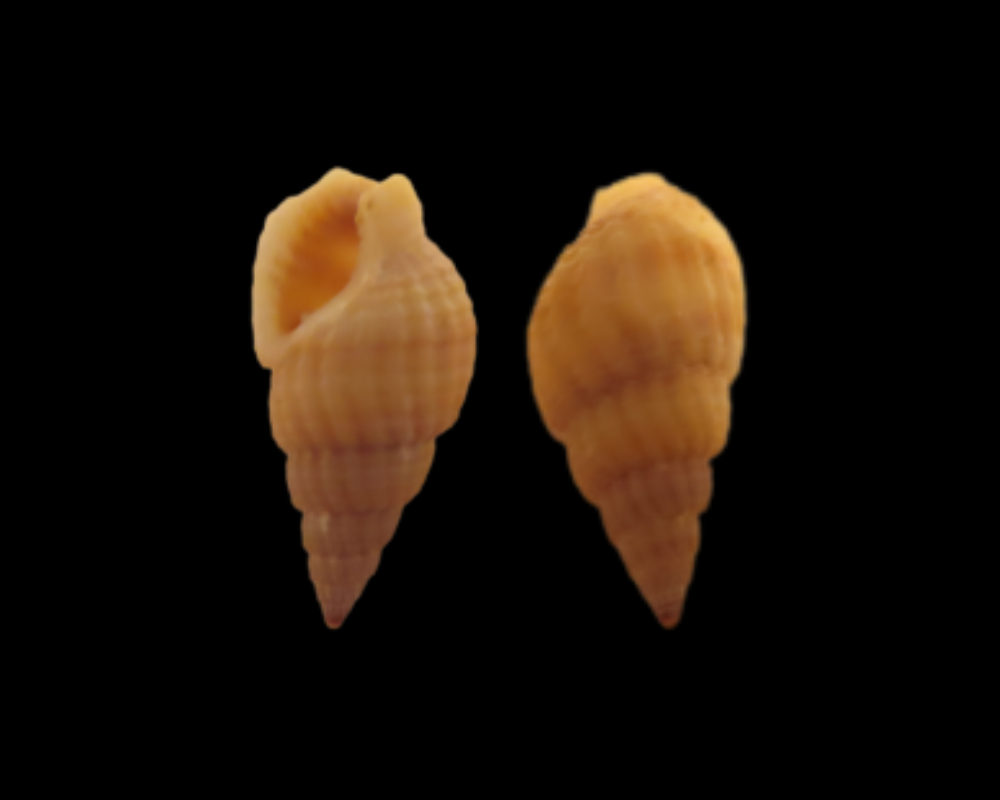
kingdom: Animalia
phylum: Mollusca
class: Gastropoda
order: Neogastropoda
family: Nassariidae
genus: Ilyanassa
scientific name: Ilyanassa trivittata
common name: Three-line mudsnail
